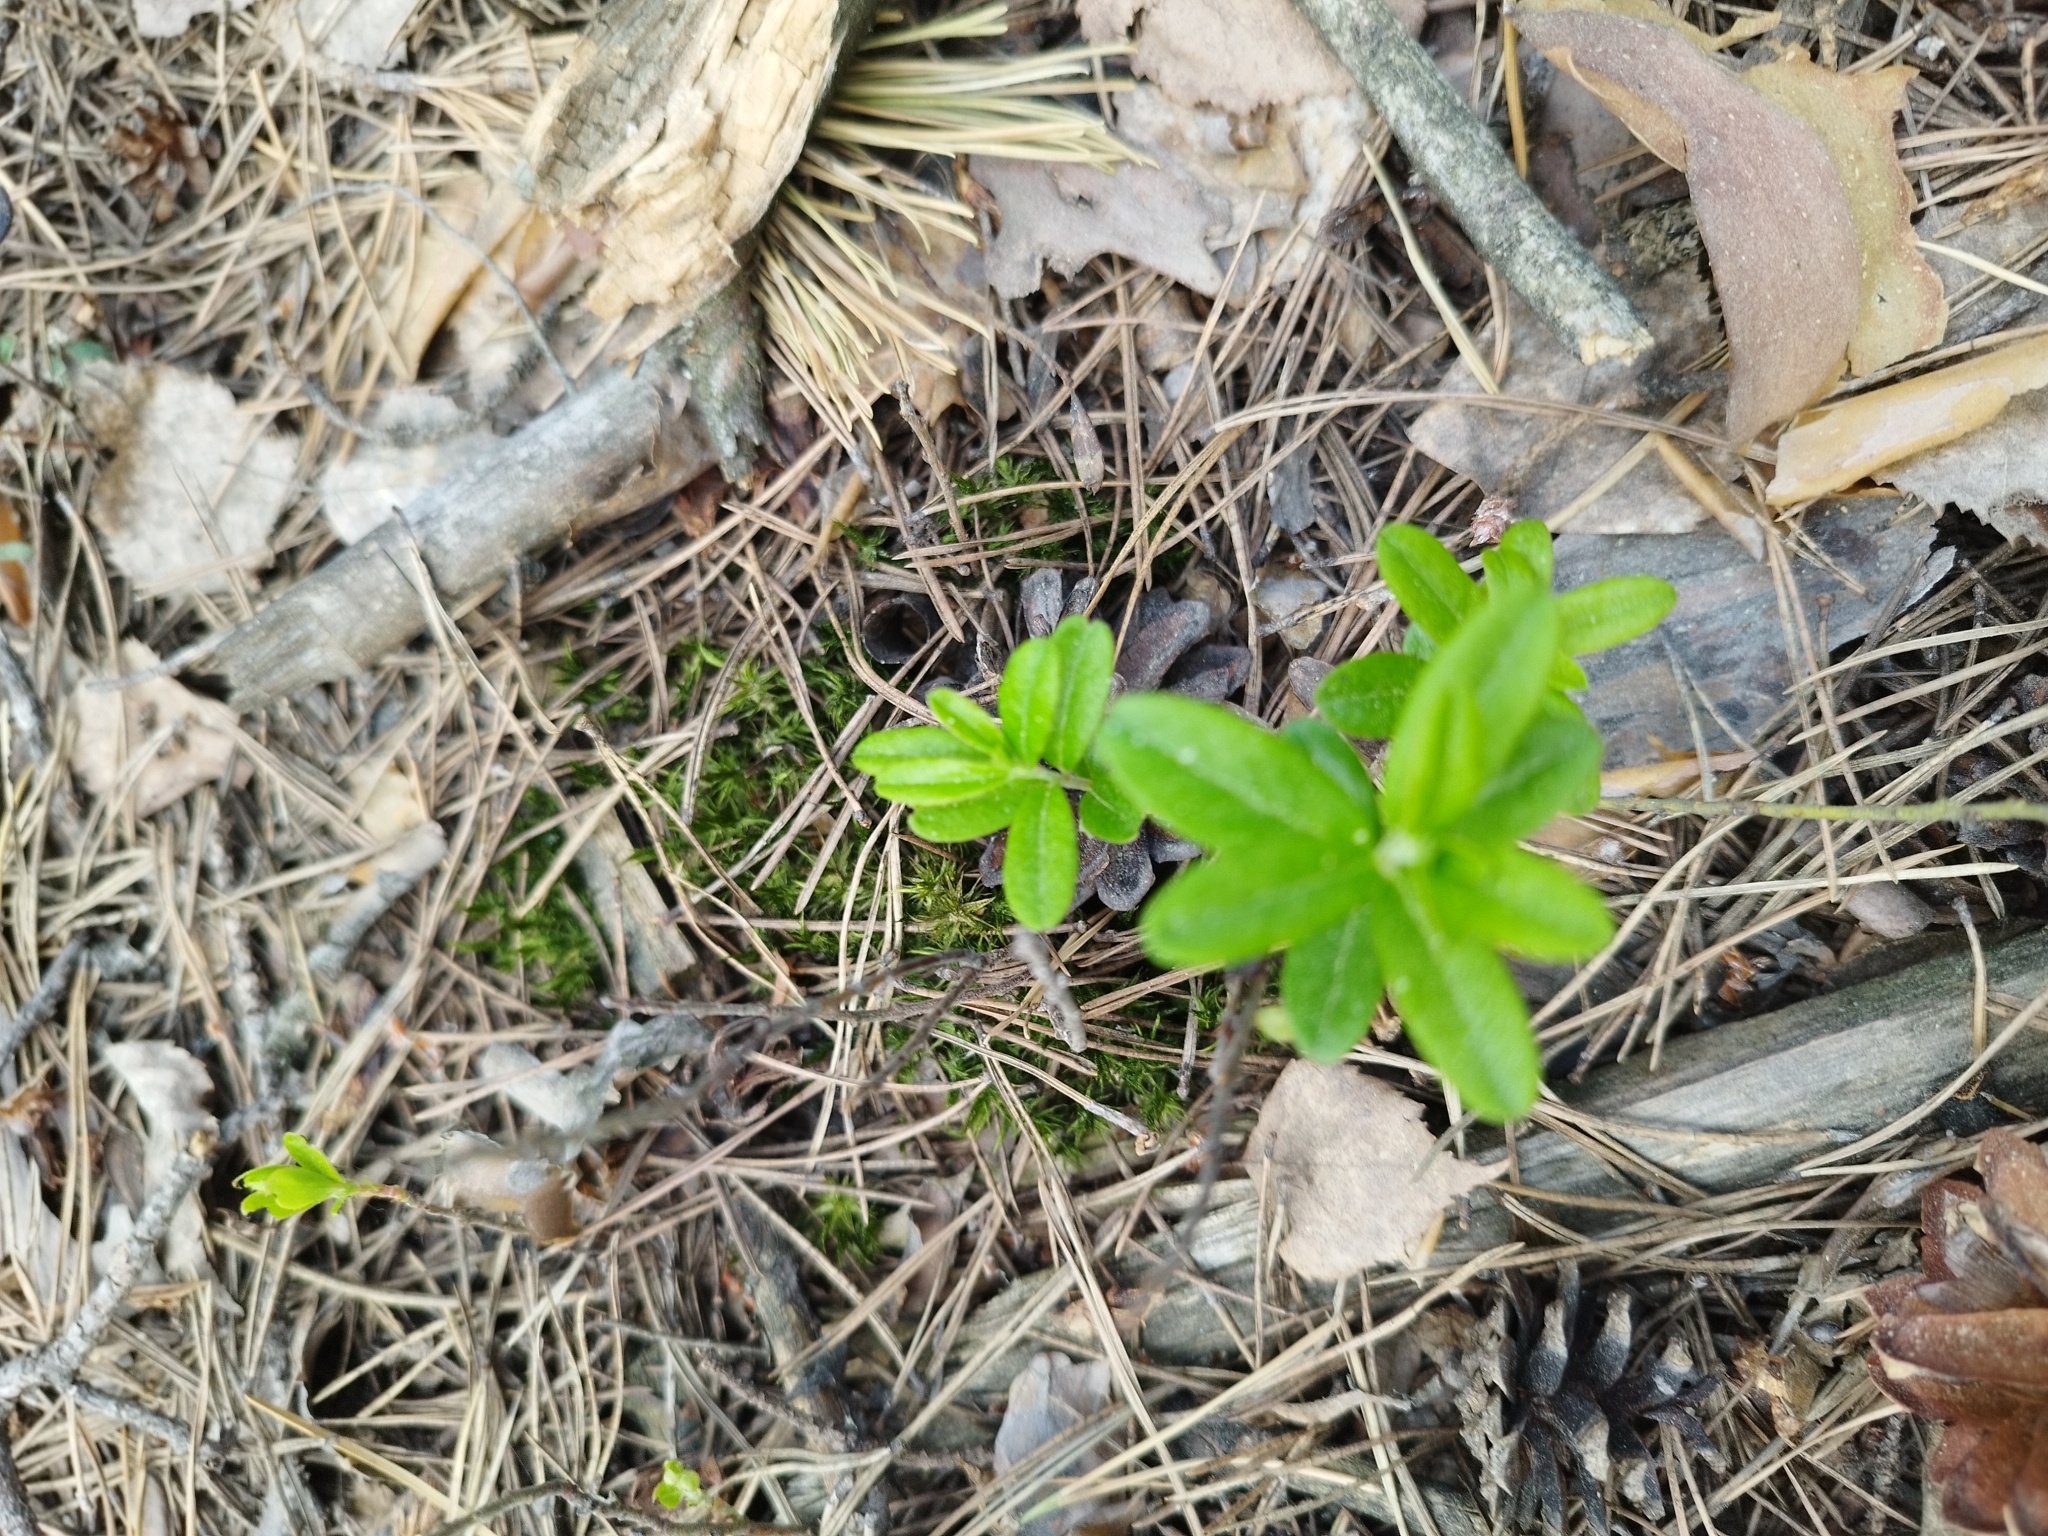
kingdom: Plantae
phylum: Tracheophyta
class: Magnoliopsida
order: Ericales
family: Ericaceae
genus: Vaccinium
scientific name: Vaccinium vitis-idaea
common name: Cowberry
